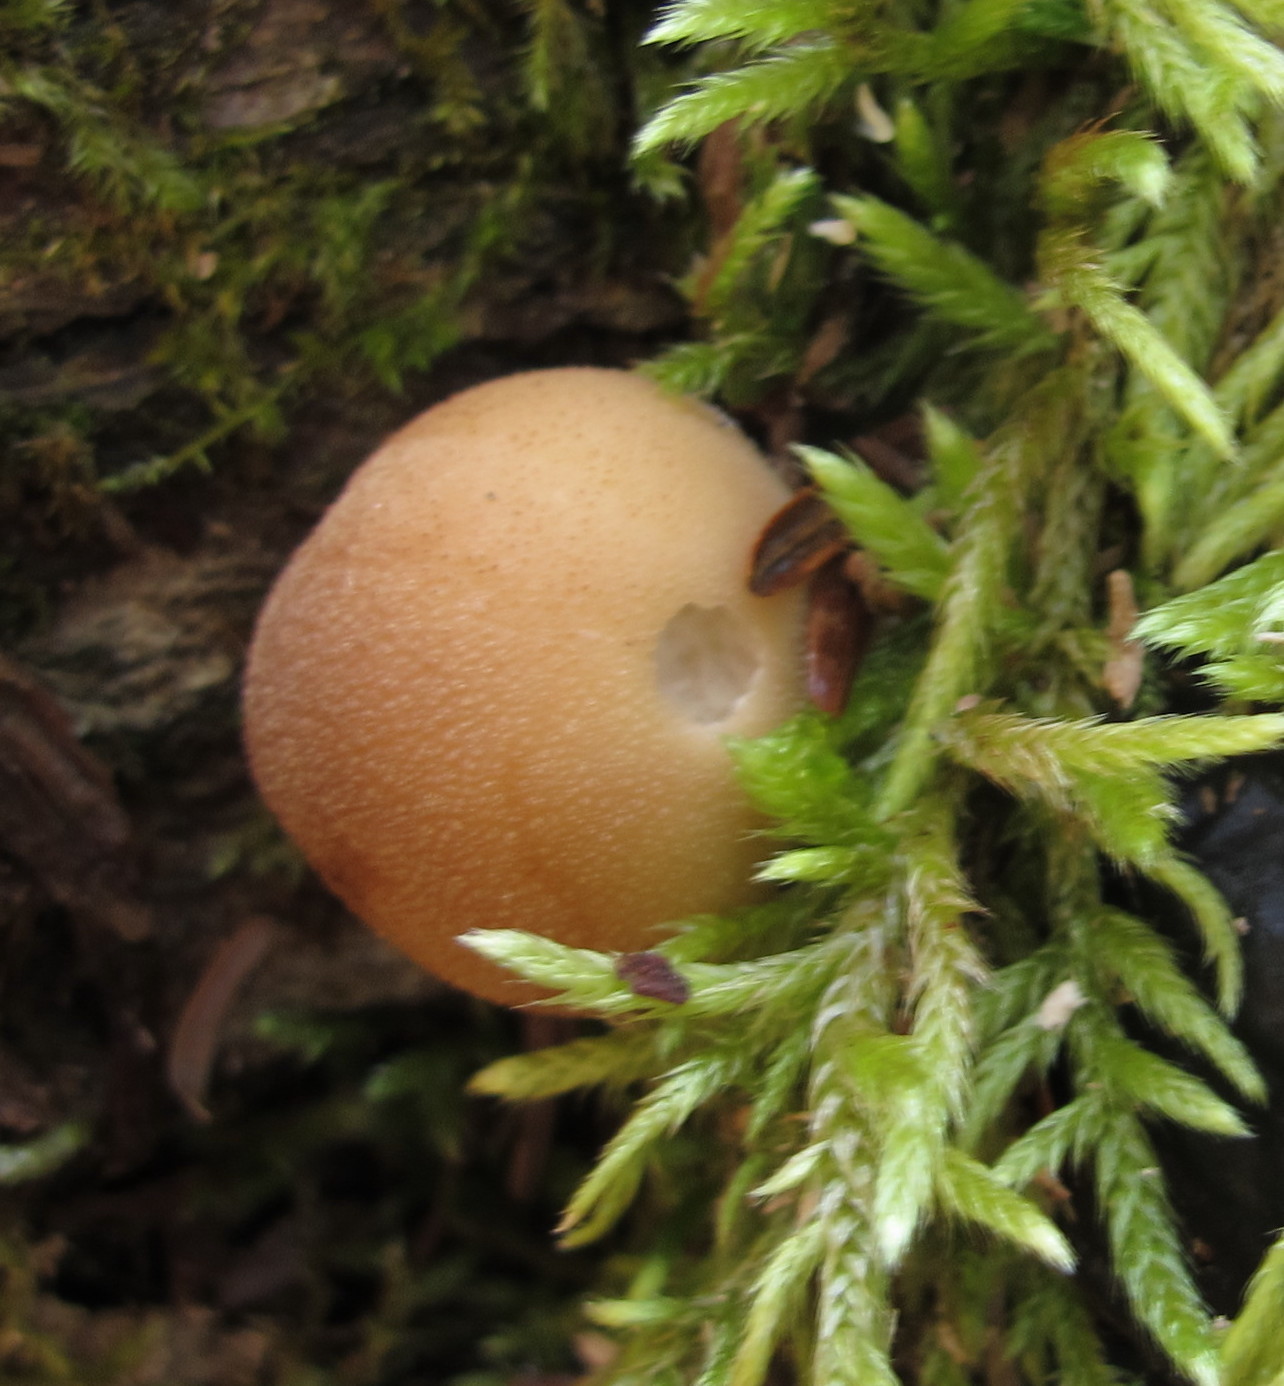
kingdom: Fungi
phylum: Basidiomycota
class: Agaricomycetes
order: Agaricales
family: Lycoperdaceae
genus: Apioperdon
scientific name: Apioperdon pyriforme
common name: Pear-shaped puffball
